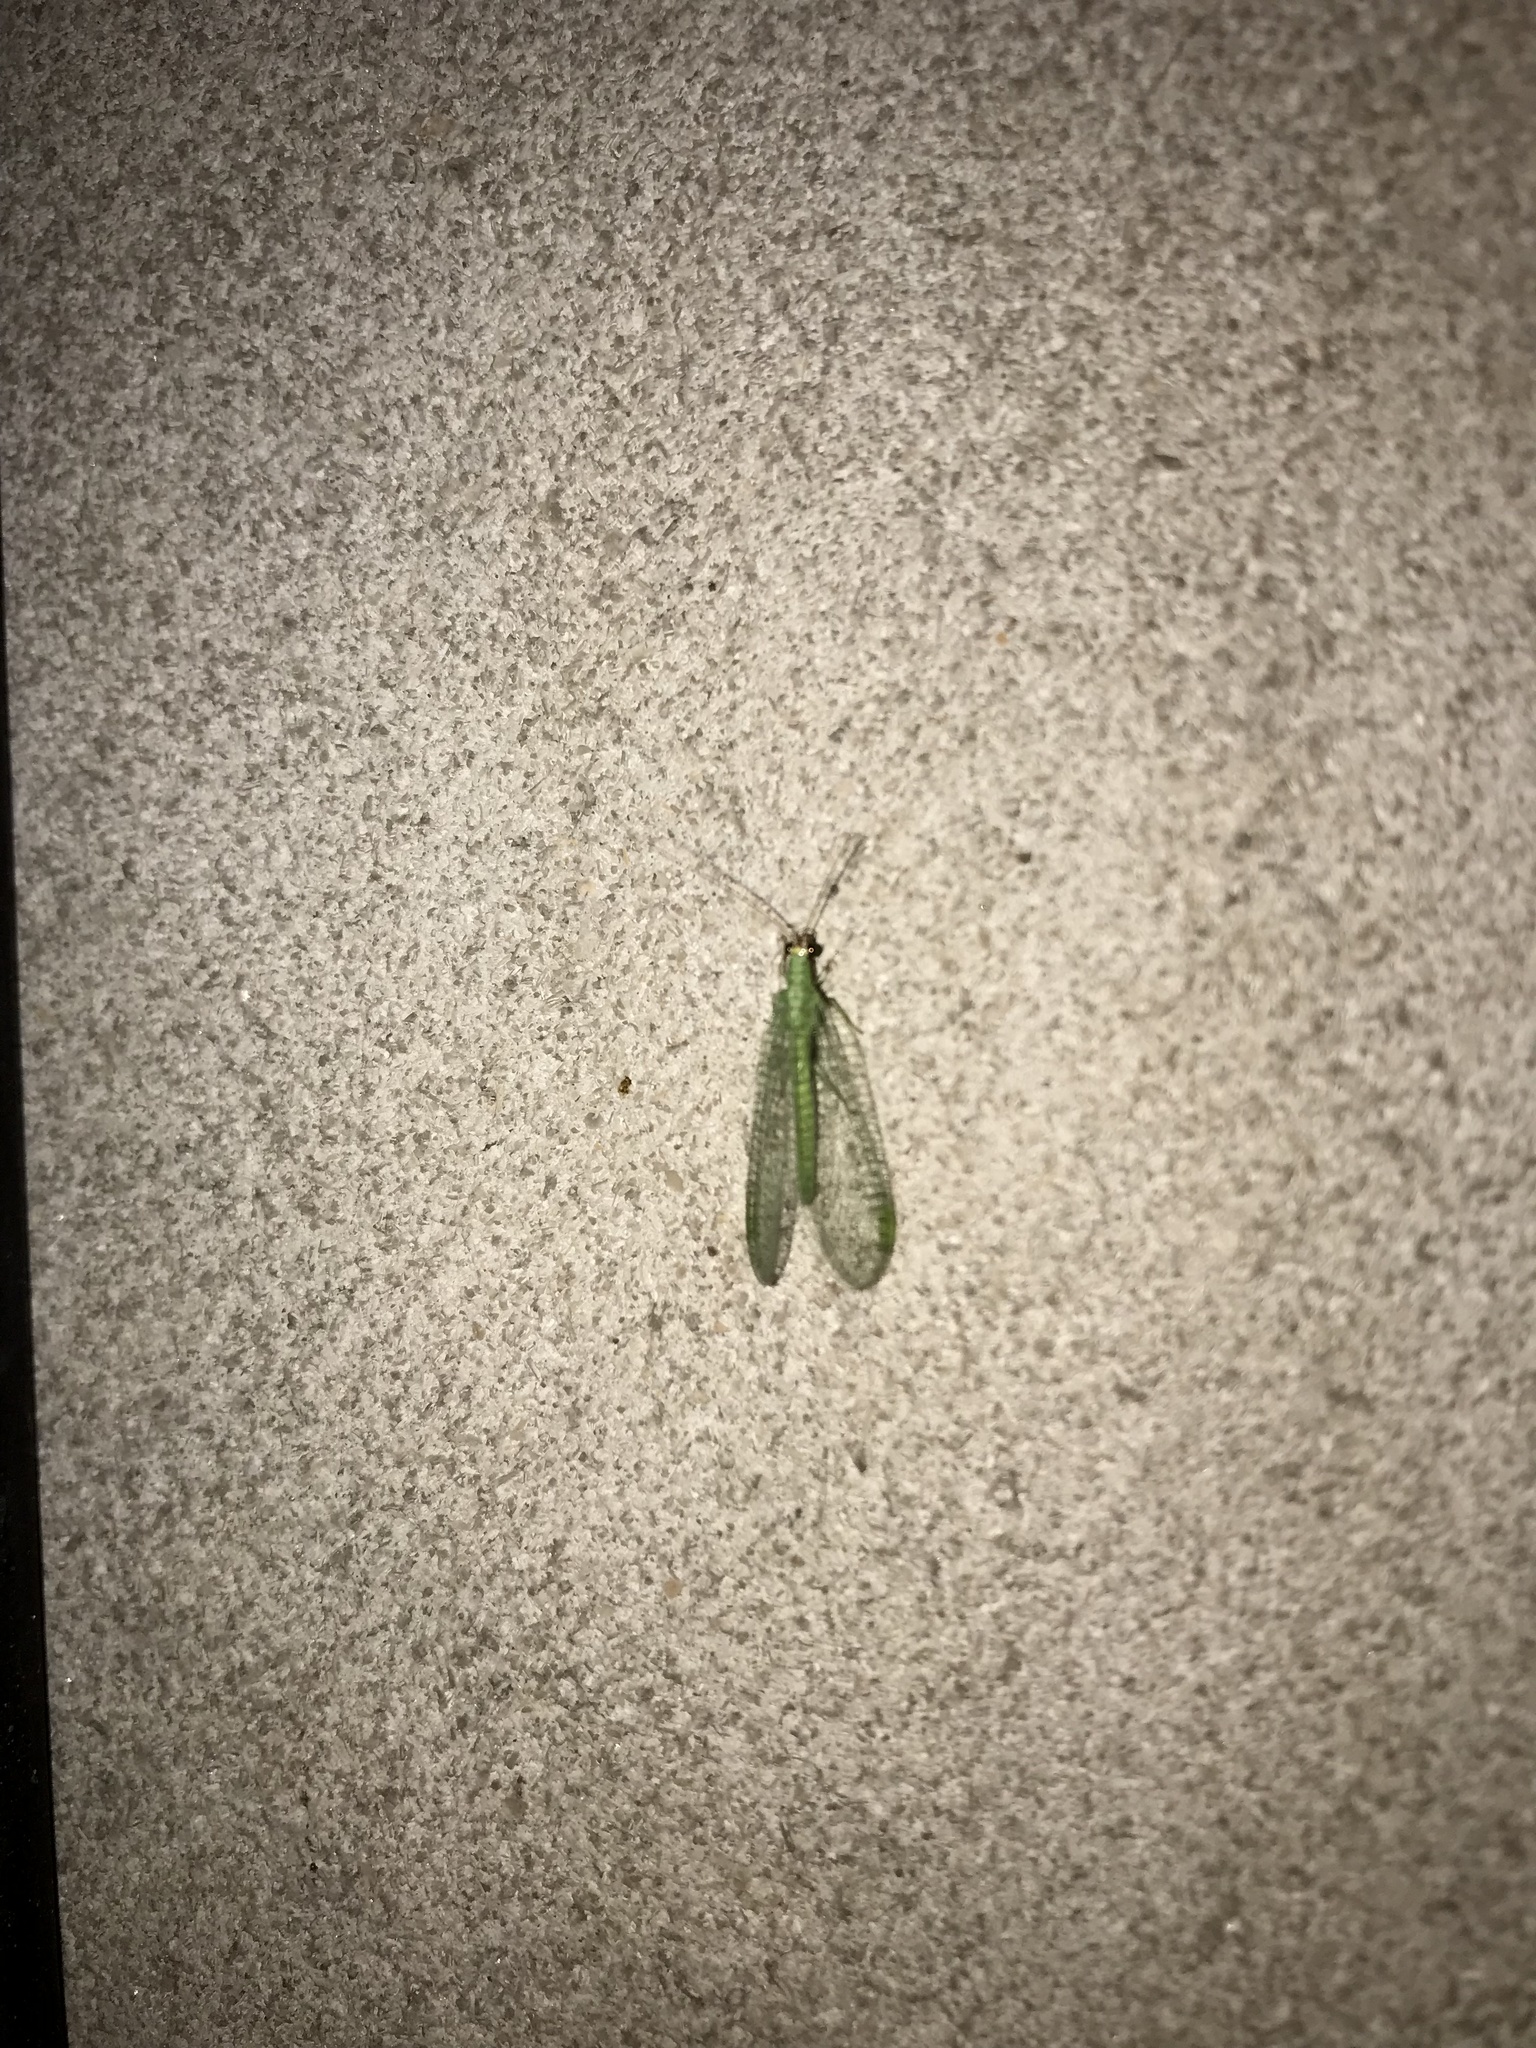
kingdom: Animalia
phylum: Arthropoda
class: Insecta
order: Neuroptera
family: Chrysopidae
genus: Chrysopa
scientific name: Chrysopa oculata
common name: Golden-eyed lacewing
